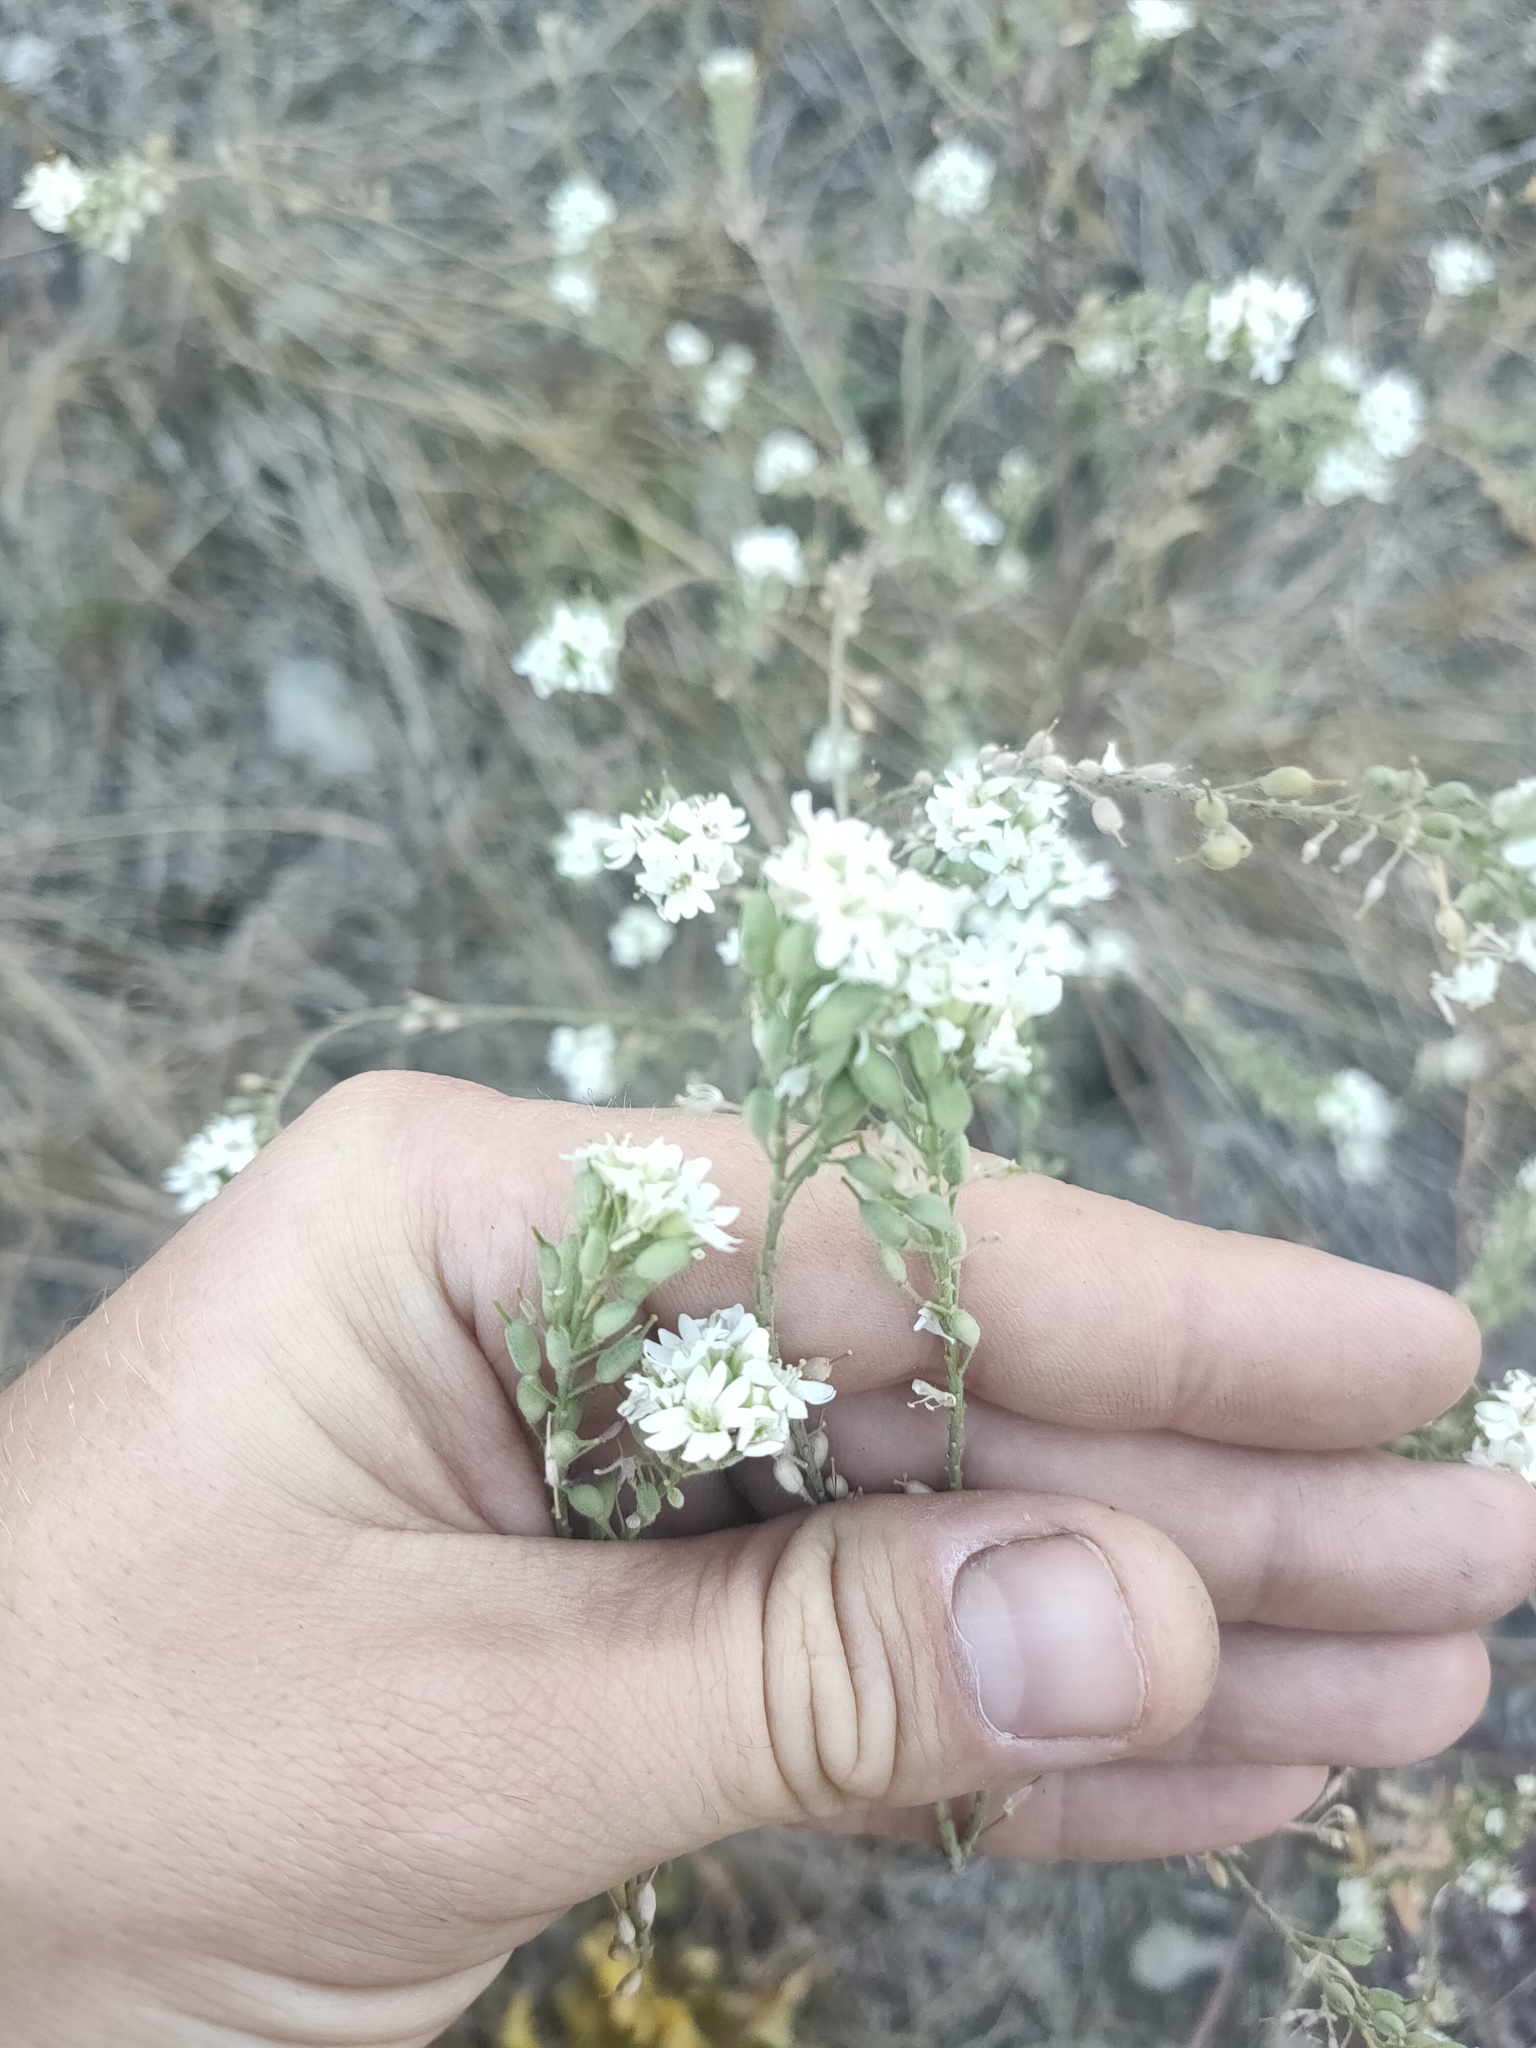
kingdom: Plantae
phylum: Tracheophyta
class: Magnoliopsida
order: Brassicales
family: Brassicaceae
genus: Berteroa
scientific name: Berteroa incana
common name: Hoary alison
